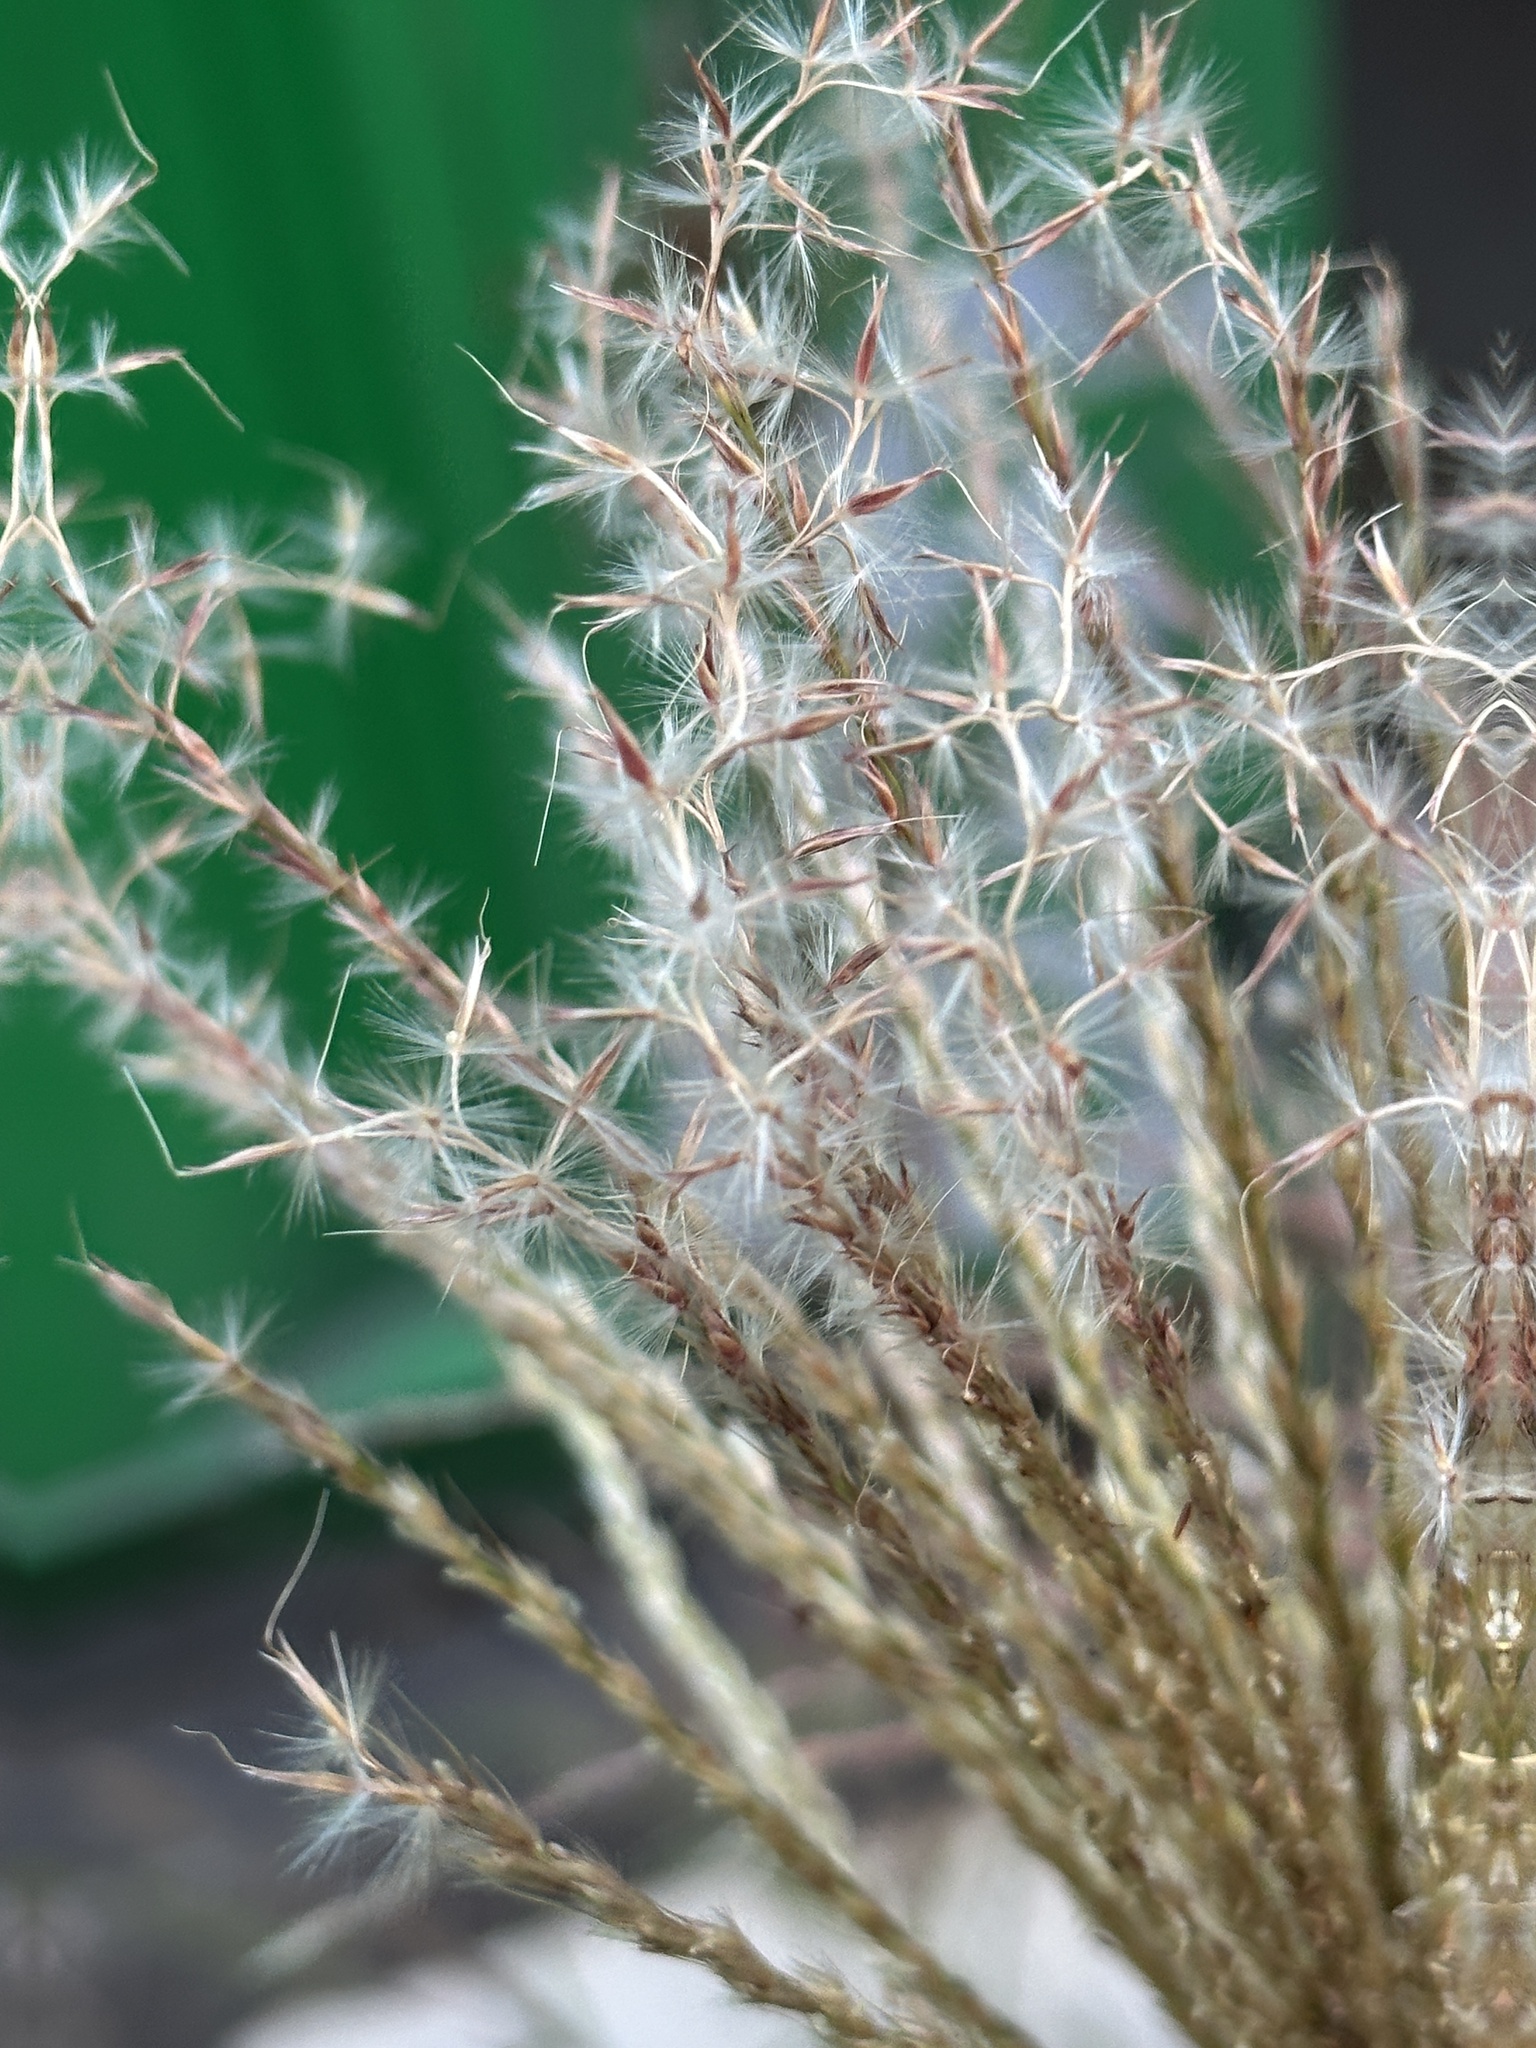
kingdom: Plantae
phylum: Tracheophyta
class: Liliopsida
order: Poales
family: Poaceae
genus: Miscanthus
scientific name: Miscanthus sinensis
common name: Chinese silvergrass
